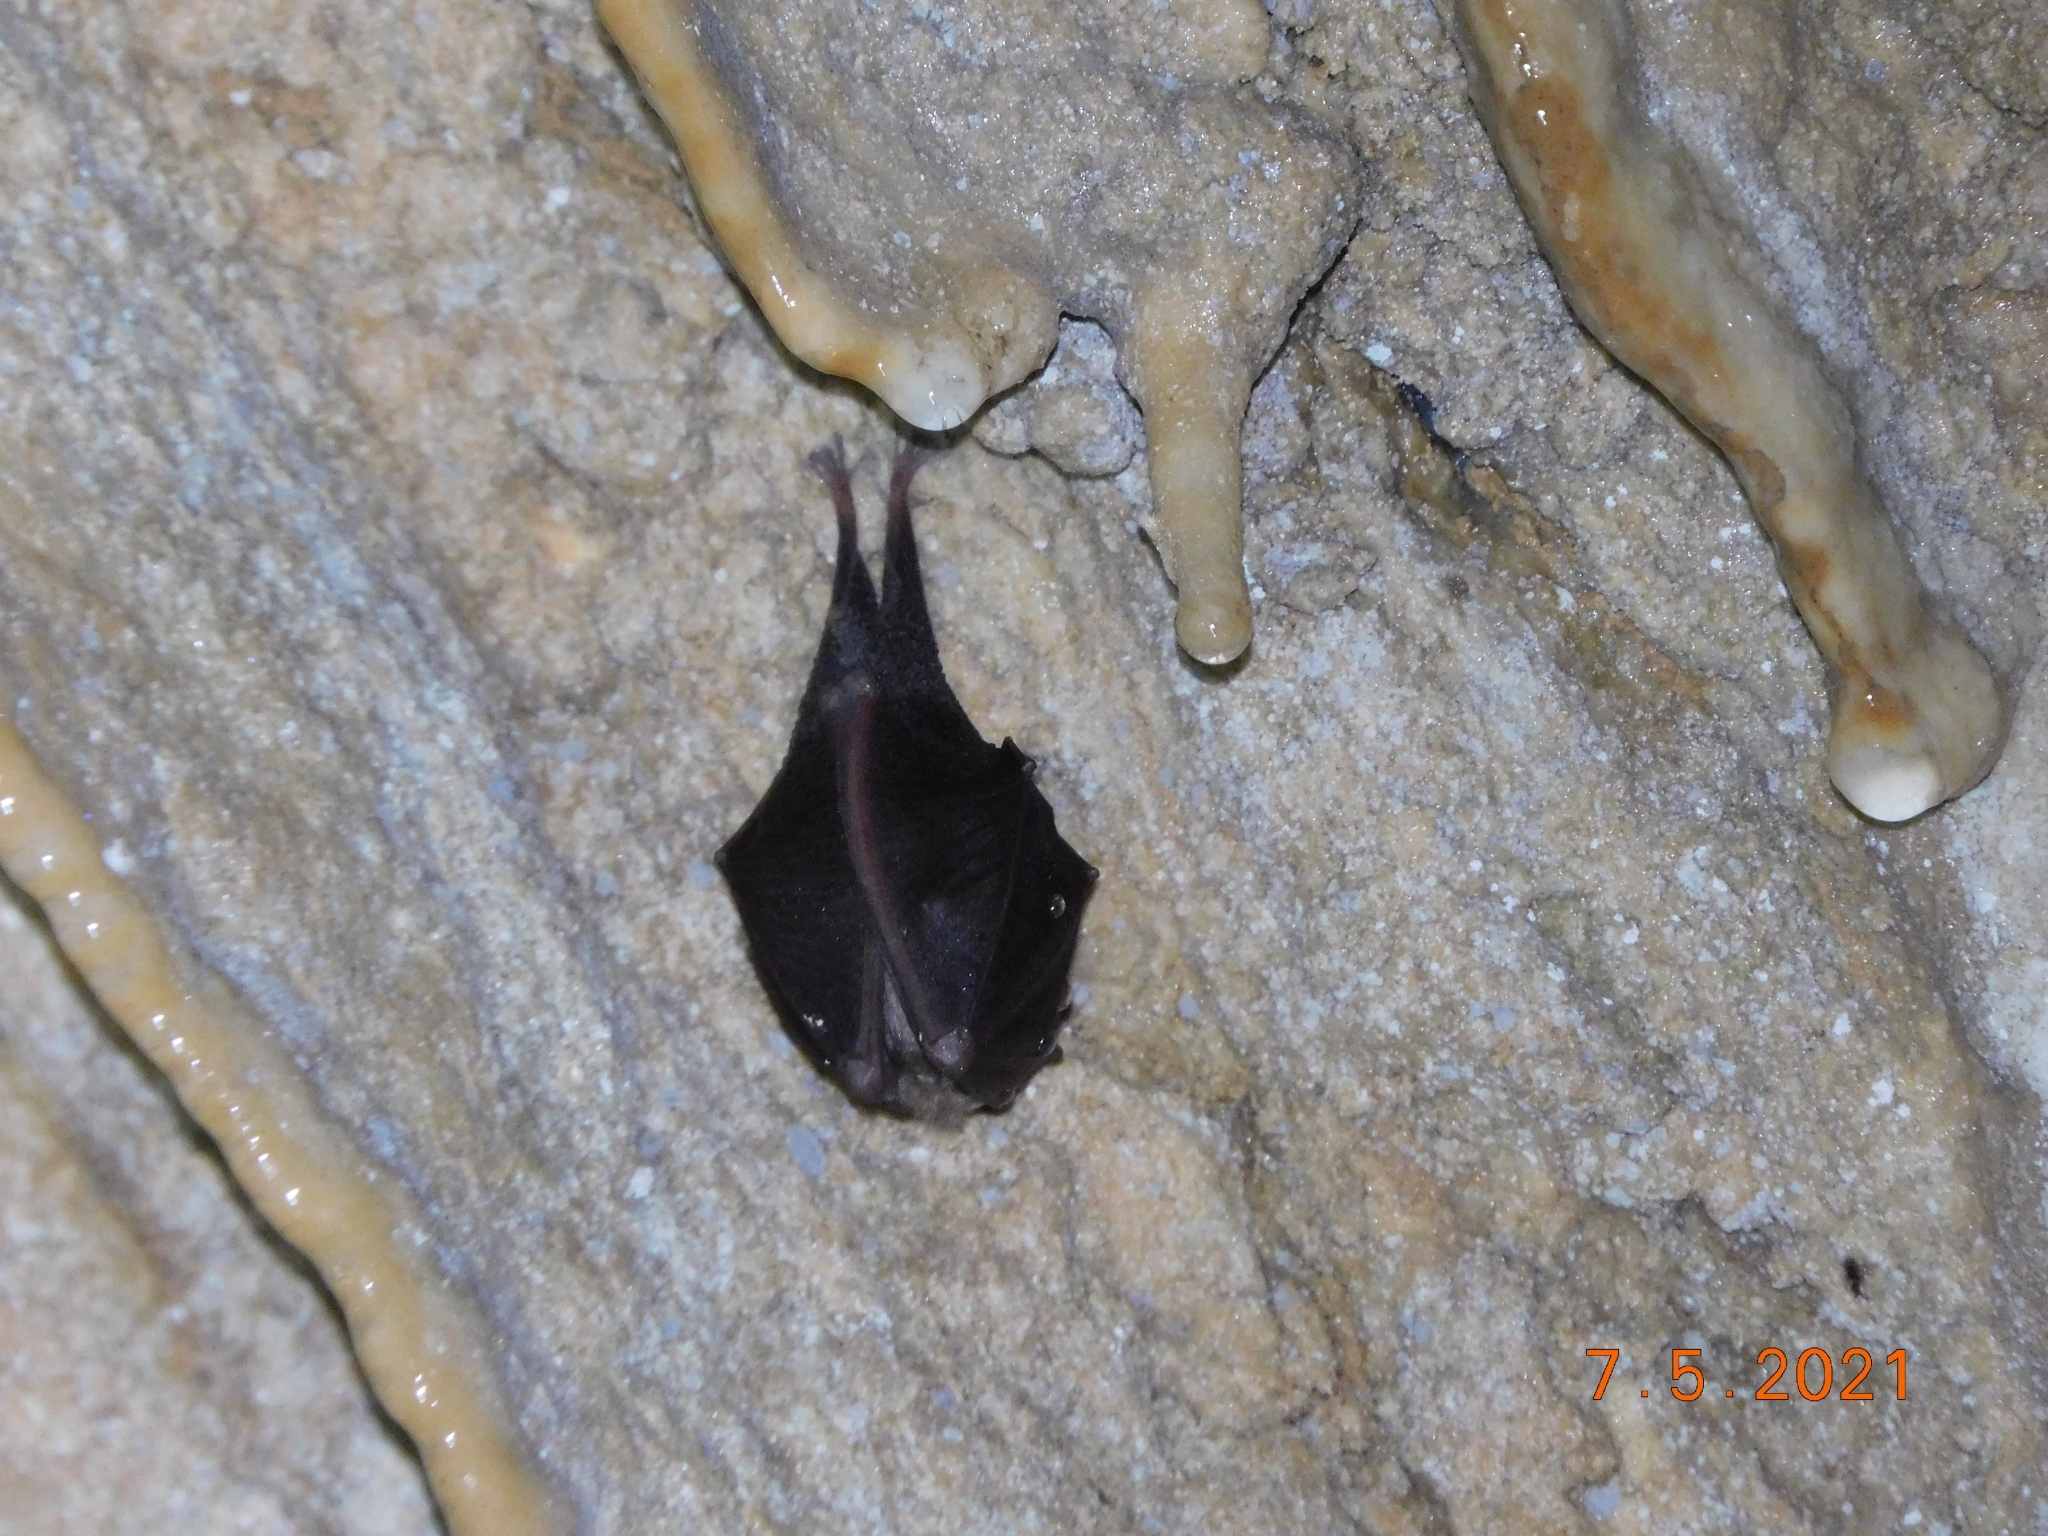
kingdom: Animalia
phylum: Chordata
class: Mammalia
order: Chiroptera
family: Rhinolophidae
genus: Rhinolophus
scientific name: Rhinolophus hipposideros
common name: Lesser horseshoe bat
